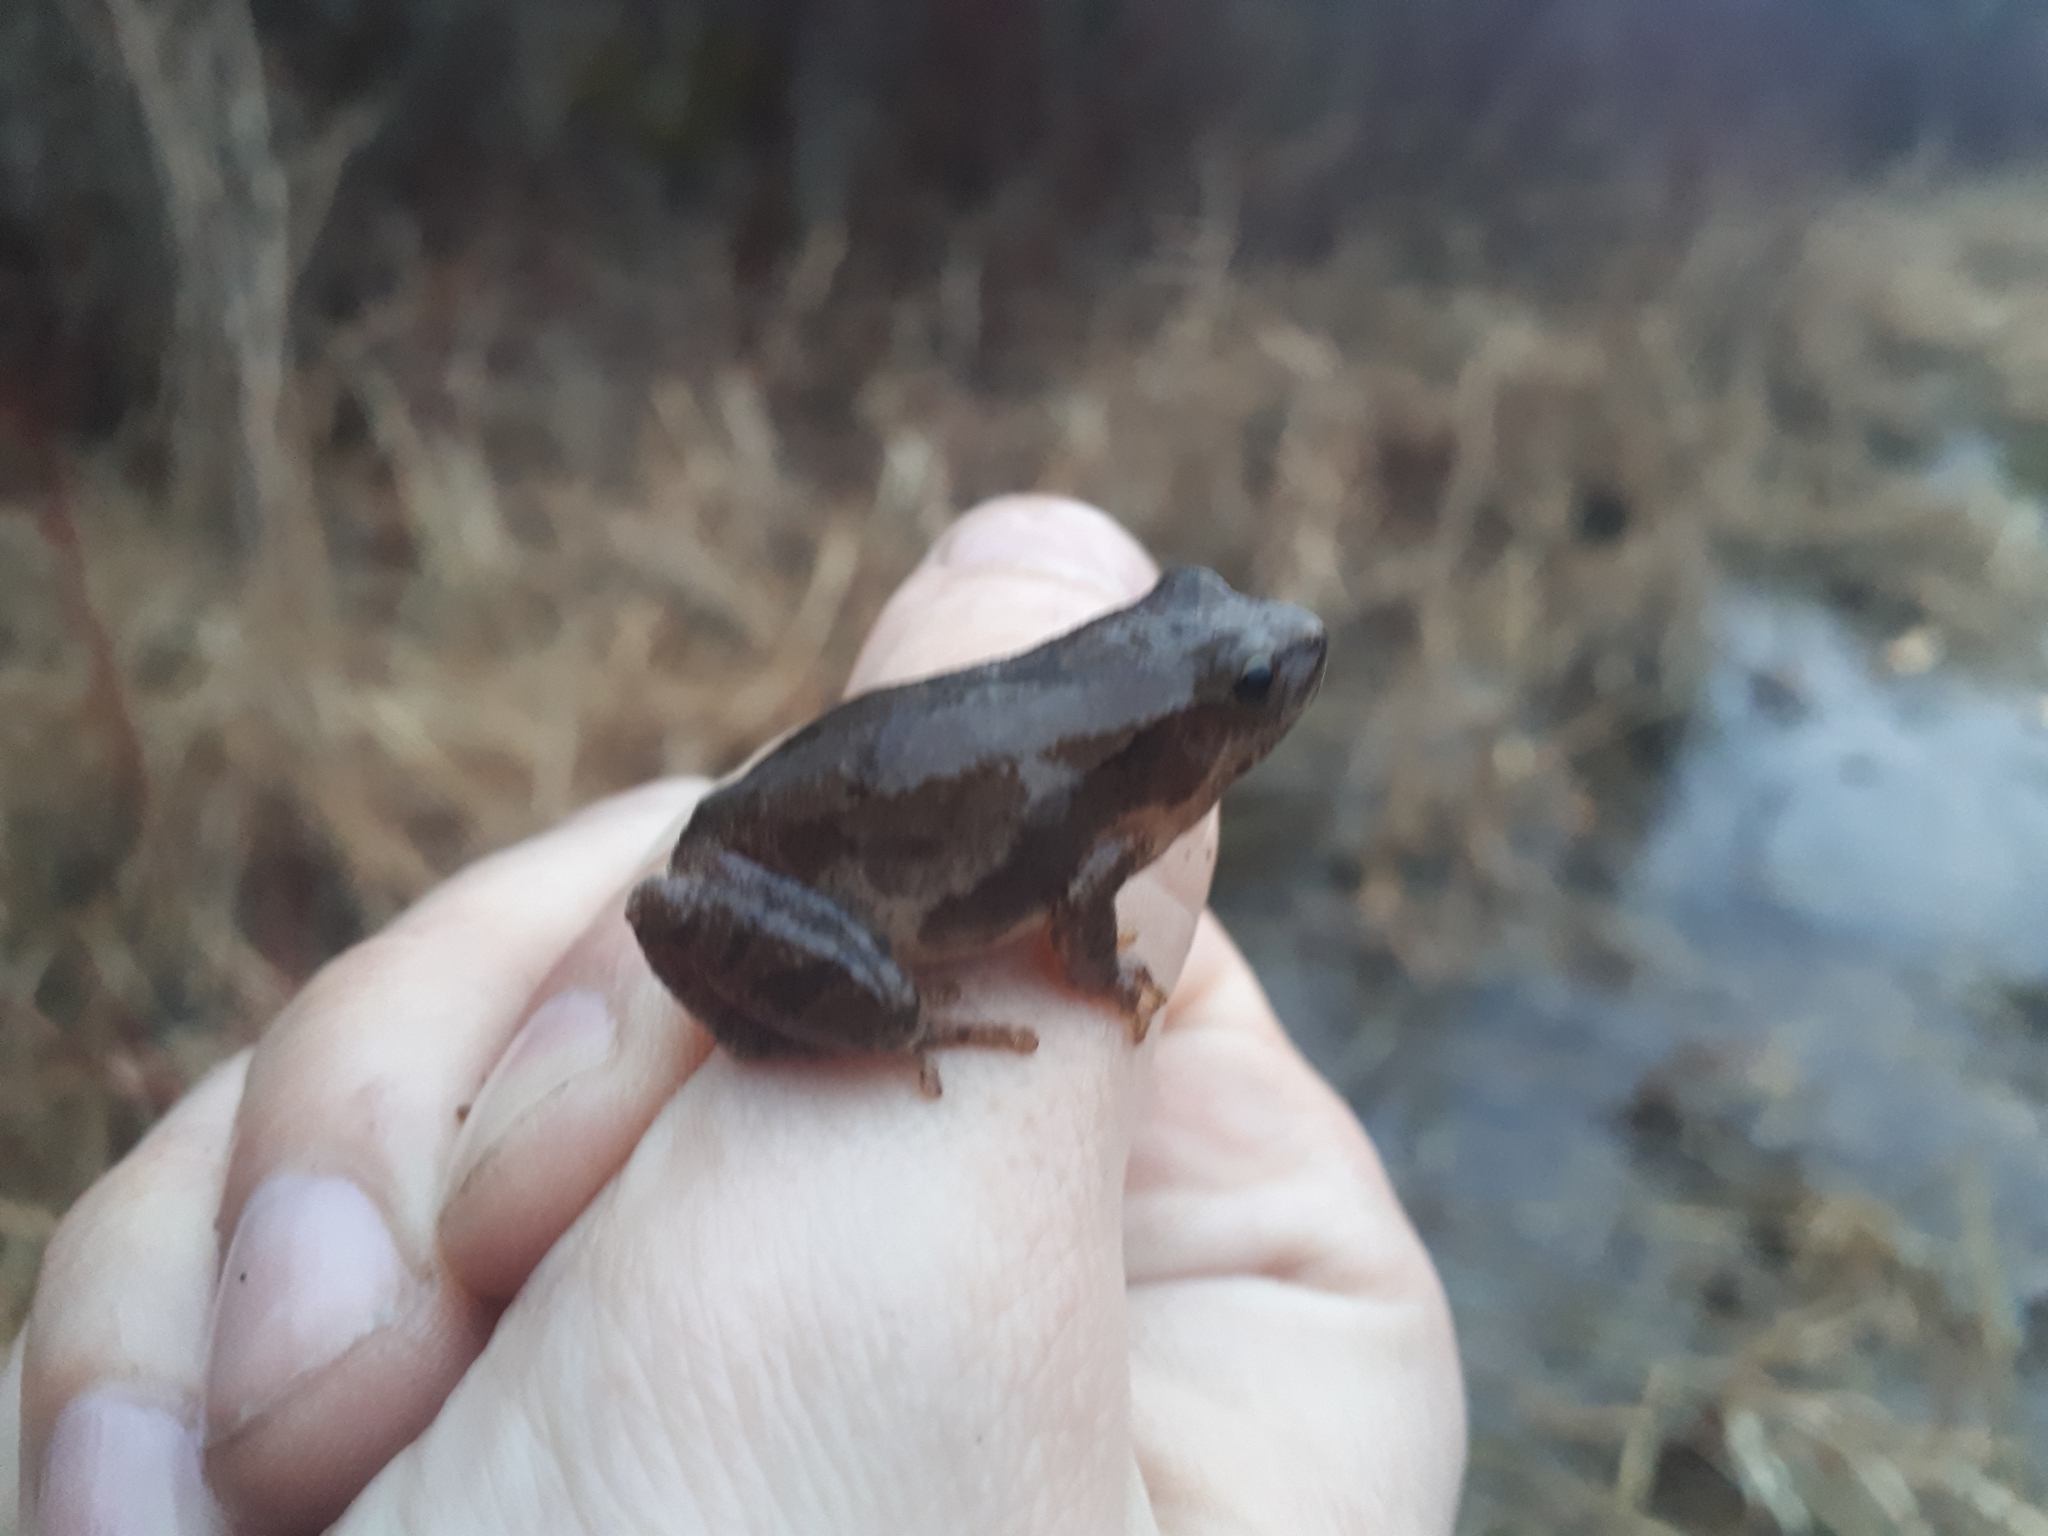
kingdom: Animalia
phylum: Chordata
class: Amphibia
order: Anura
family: Hylidae
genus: Pseudacris
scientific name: Pseudacris crucifer
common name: Spring peeper
